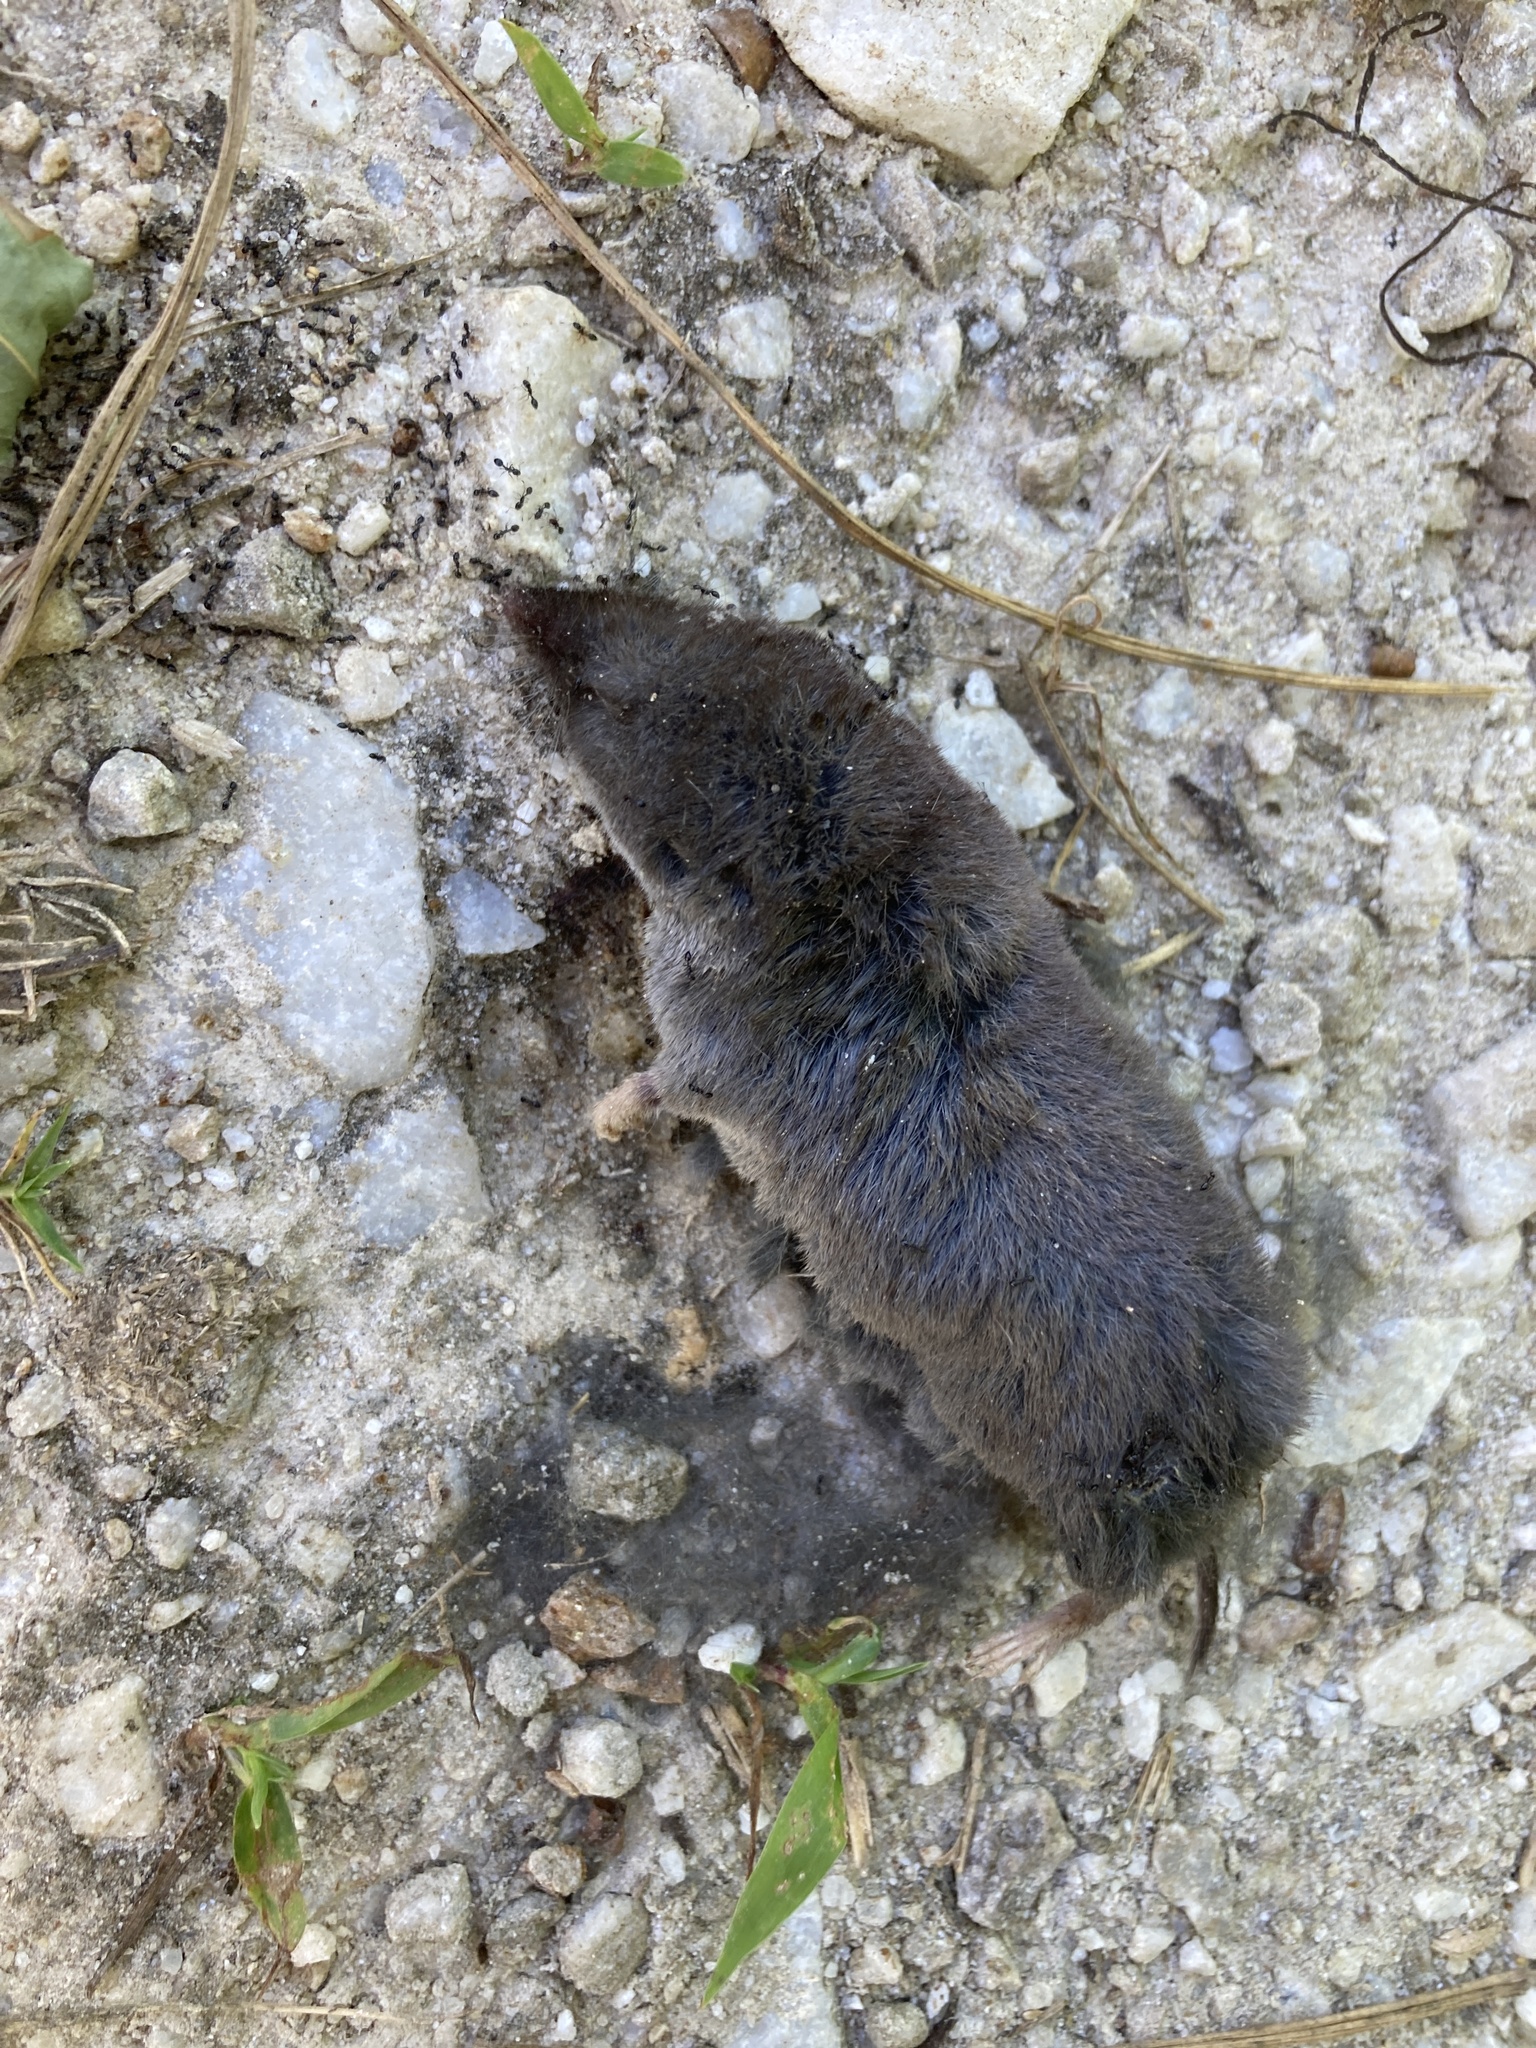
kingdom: Animalia
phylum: Chordata
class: Mammalia
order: Soricomorpha
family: Soricidae
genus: Blarina
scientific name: Blarina brevicauda
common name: Northern short-tailed shrew
